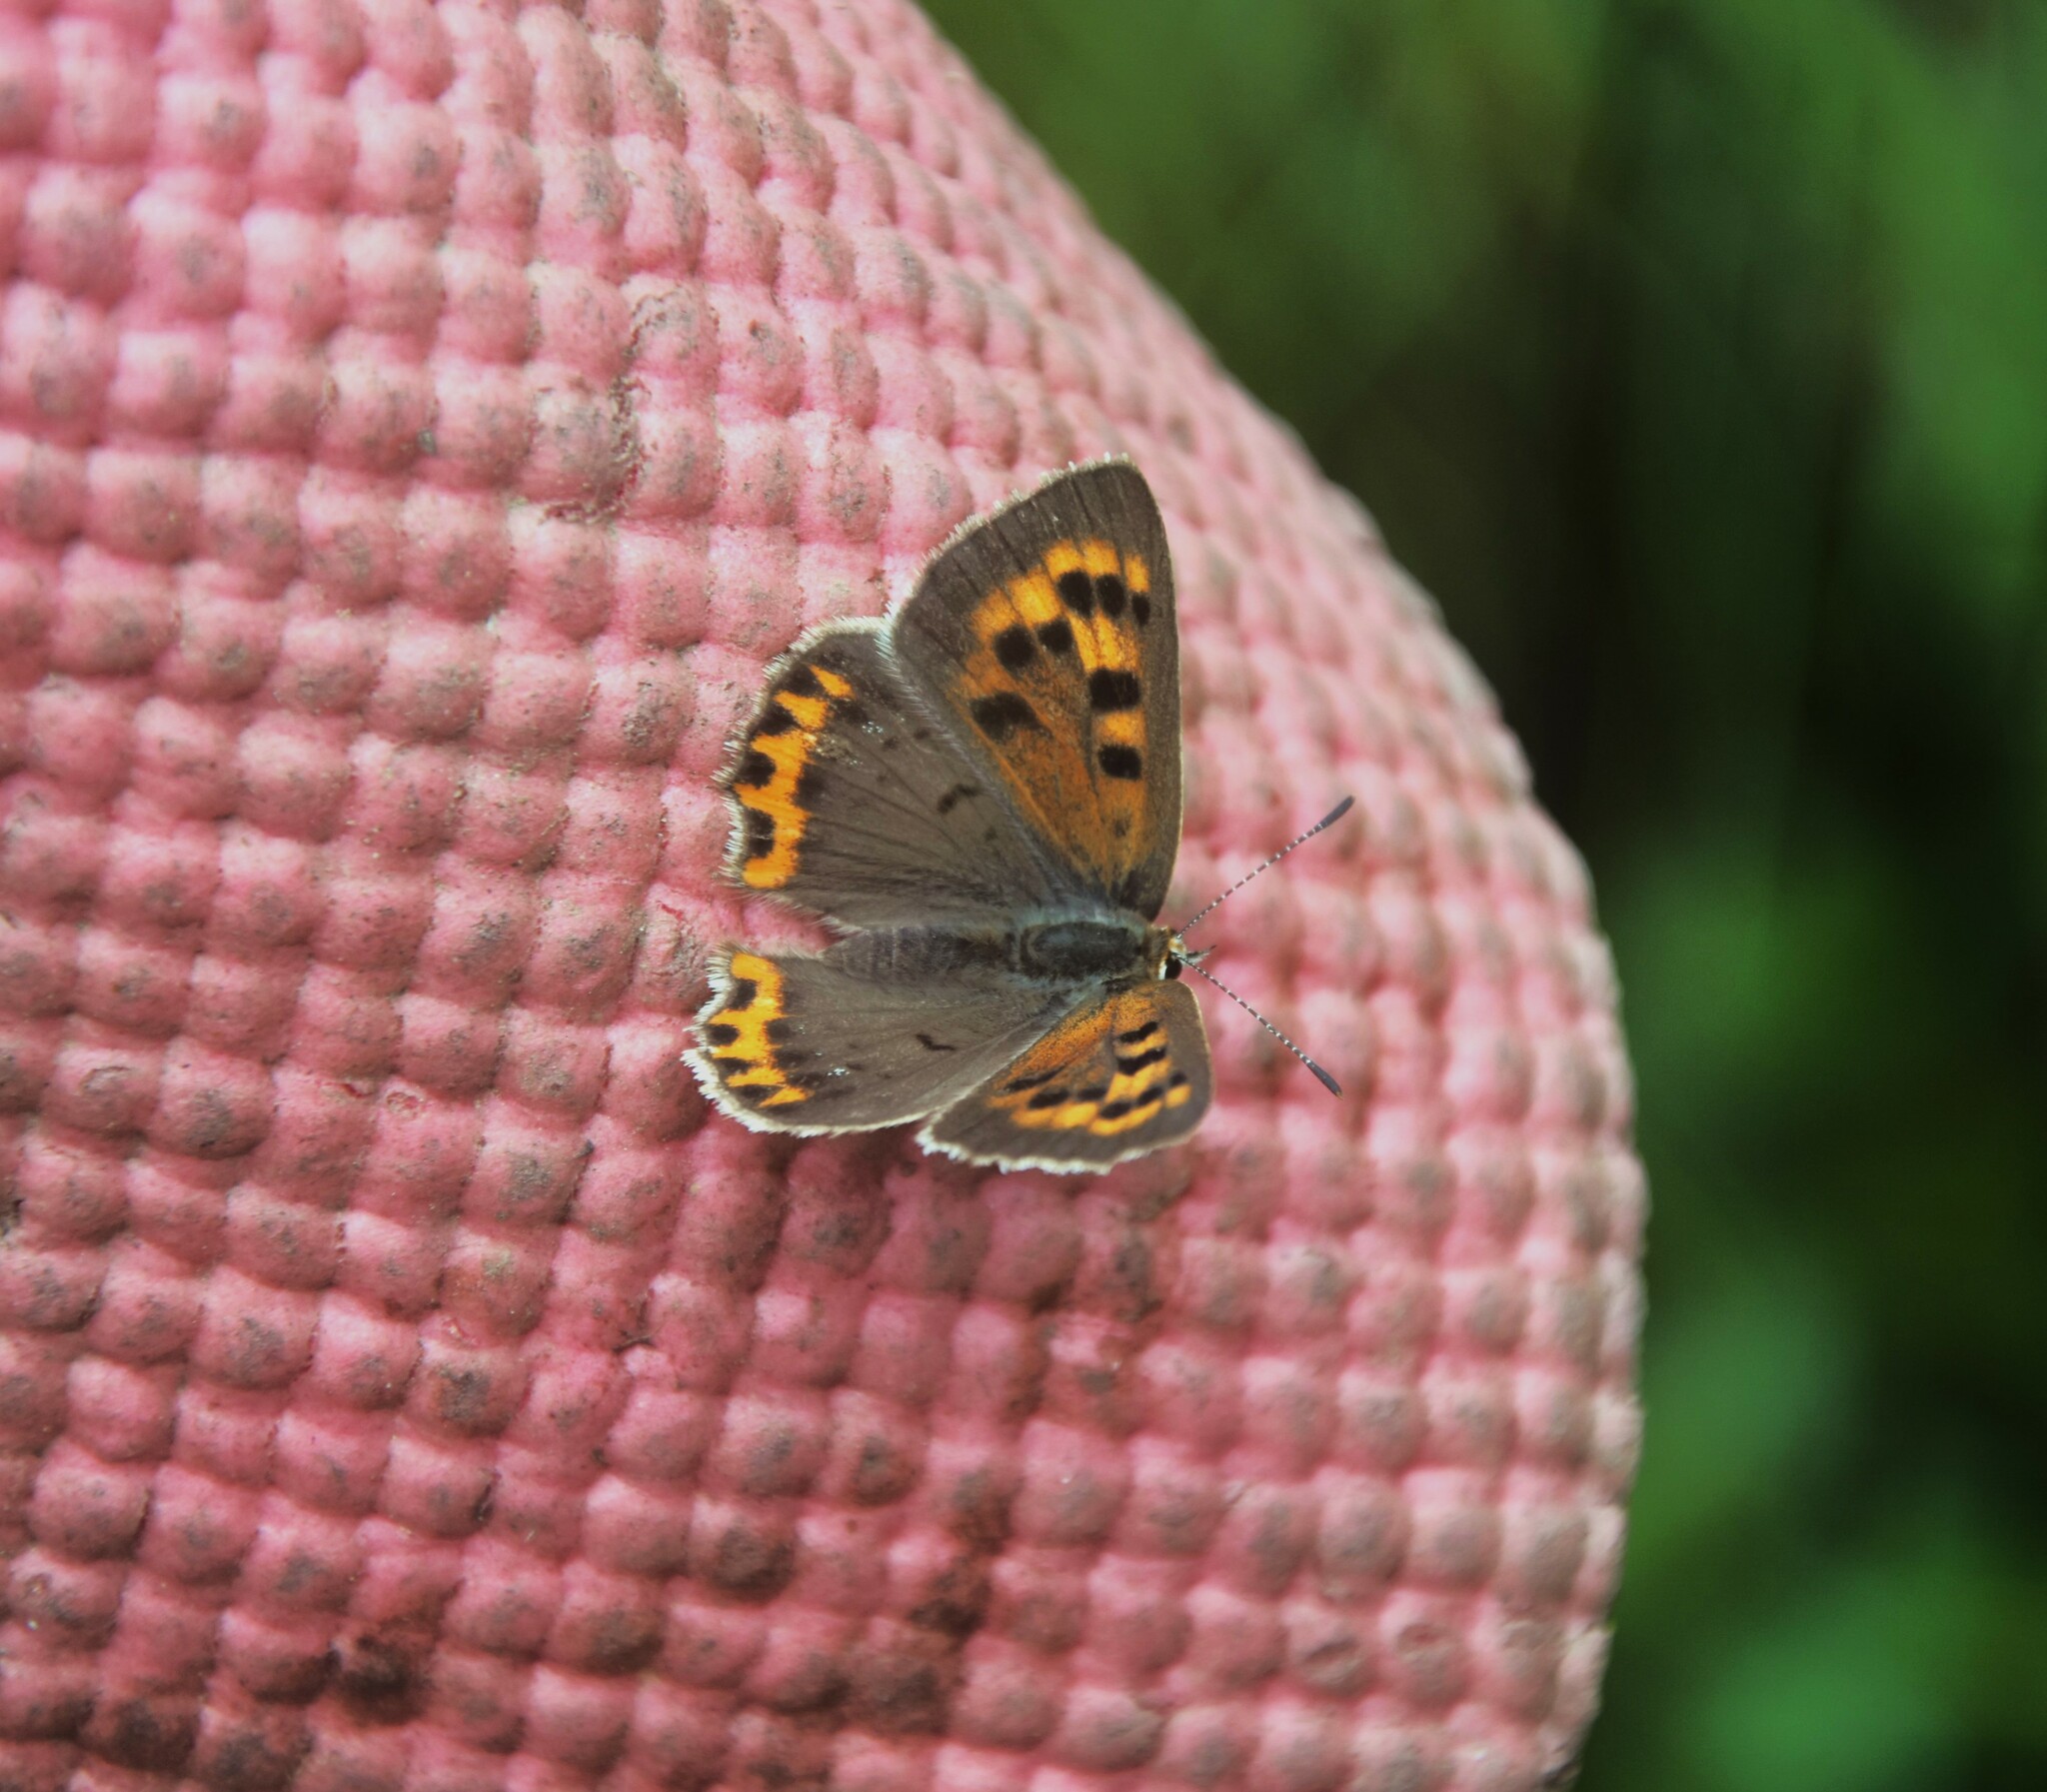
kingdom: Animalia
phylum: Arthropoda
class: Insecta
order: Lepidoptera
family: Lycaenidae
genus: Lycaena
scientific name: Lycaena phlaeas
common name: Small copper
